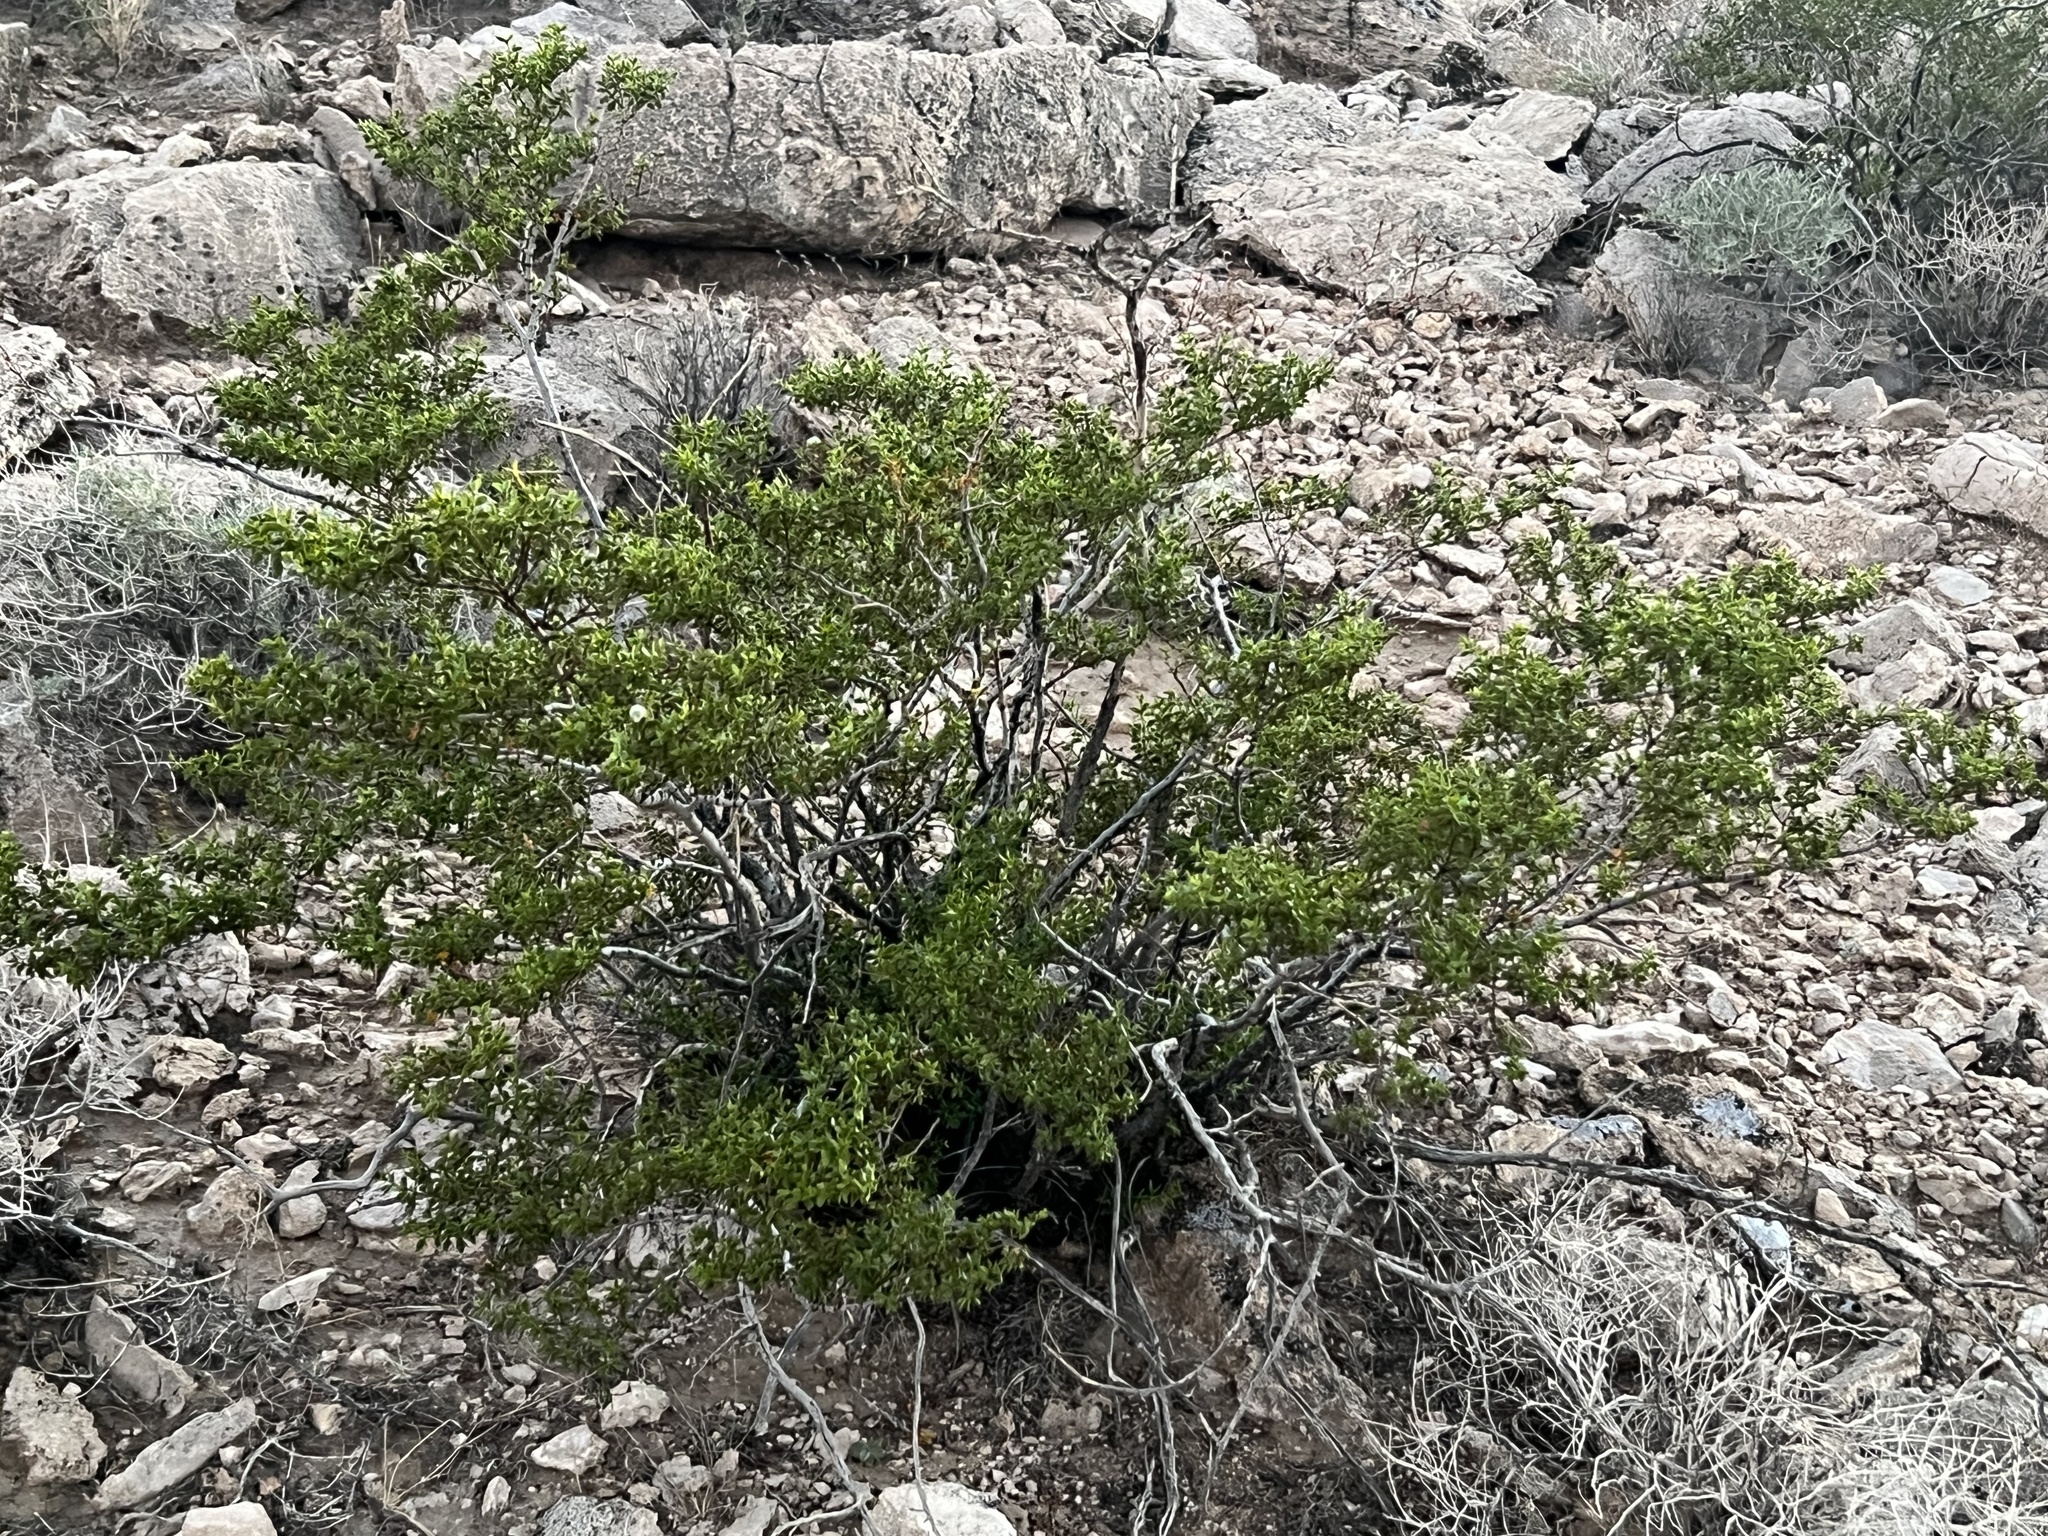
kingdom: Plantae
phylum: Tracheophyta
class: Magnoliopsida
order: Zygophyllales
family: Zygophyllaceae
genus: Larrea
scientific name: Larrea tridentata
